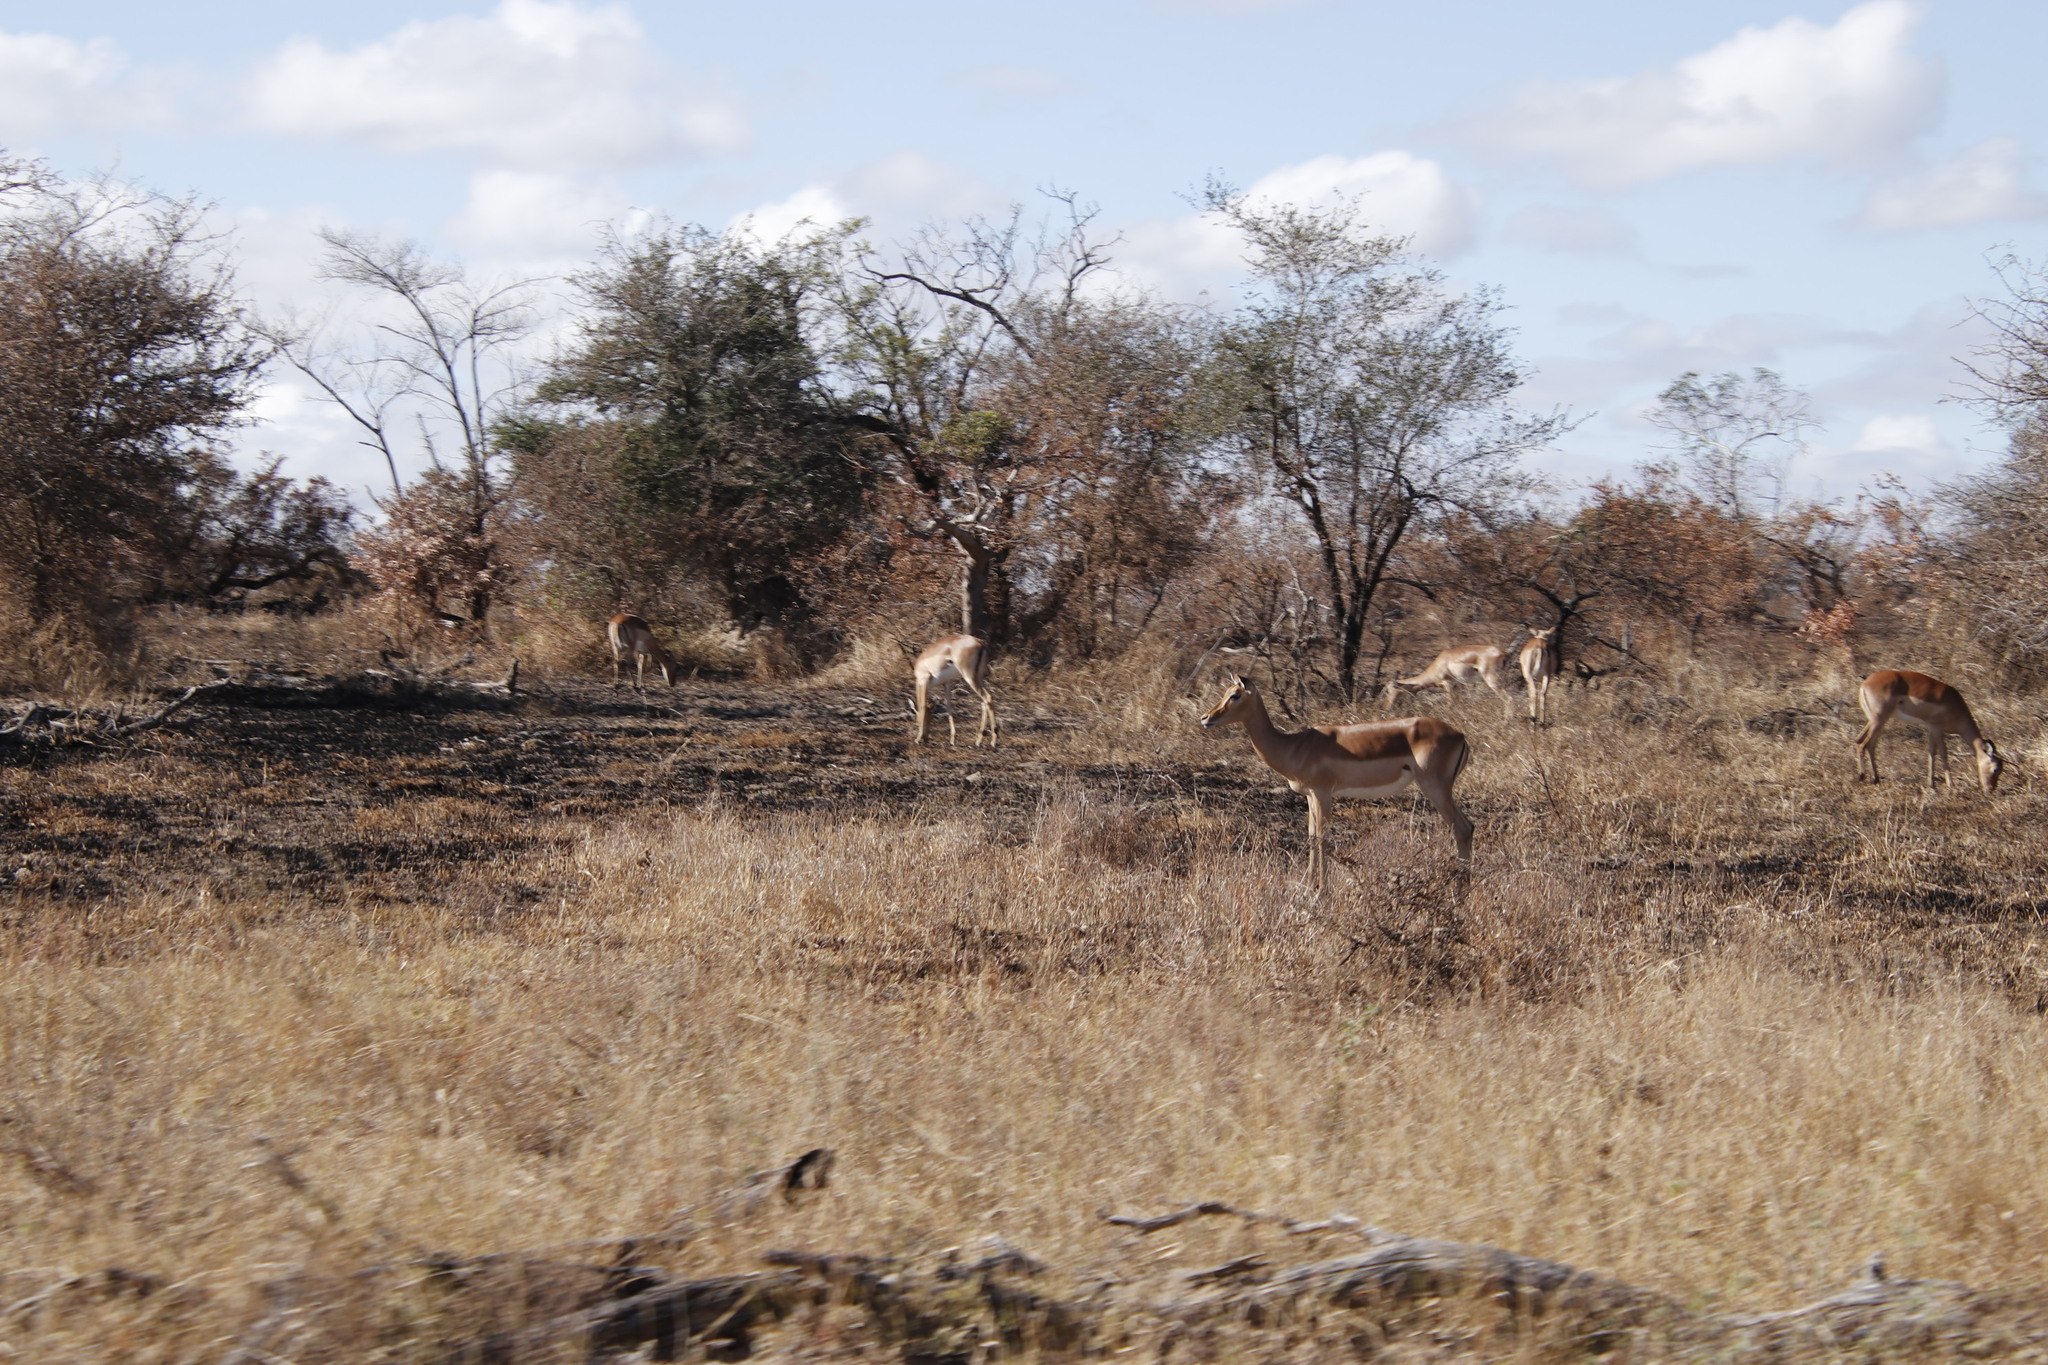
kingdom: Animalia
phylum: Chordata
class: Mammalia
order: Artiodactyla
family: Bovidae
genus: Aepyceros
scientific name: Aepyceros melampus
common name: Impala
